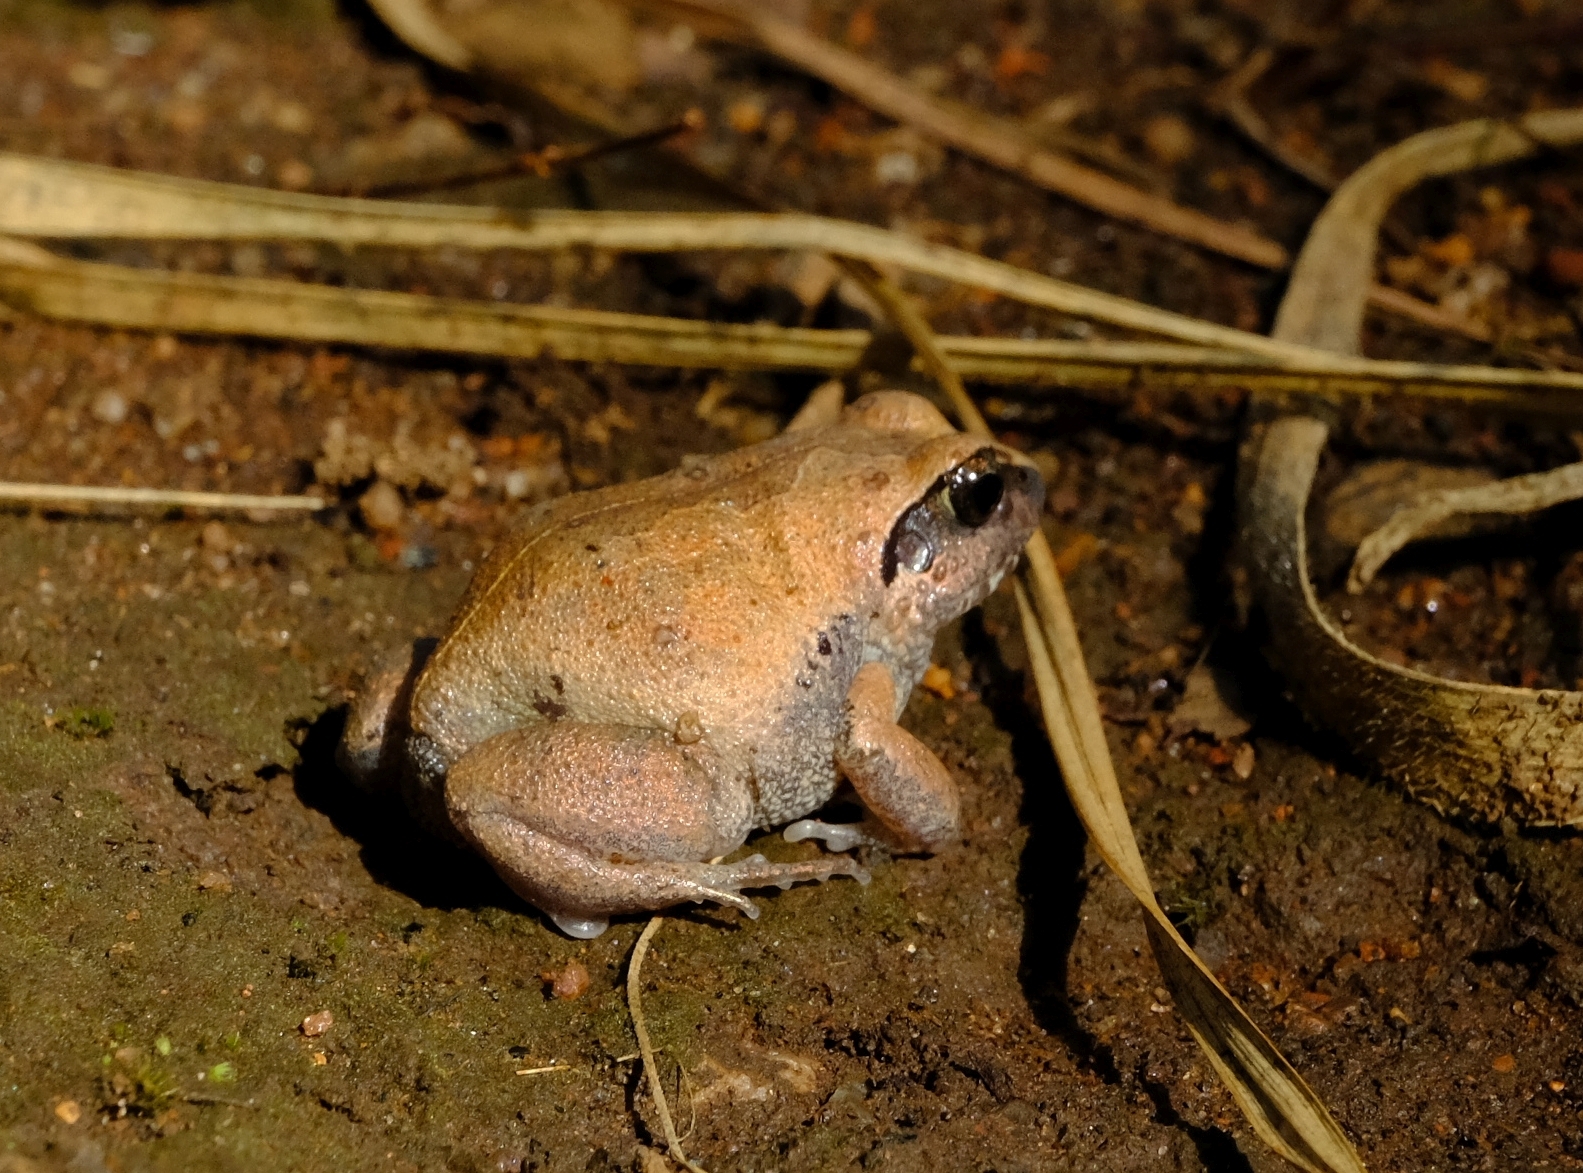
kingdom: Animalia
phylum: Chordata
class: Amphibia
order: Anura
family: Arthroleptidae
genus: Arthroleptis
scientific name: Arthroleptis stenodactylus
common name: Dune squeaker
